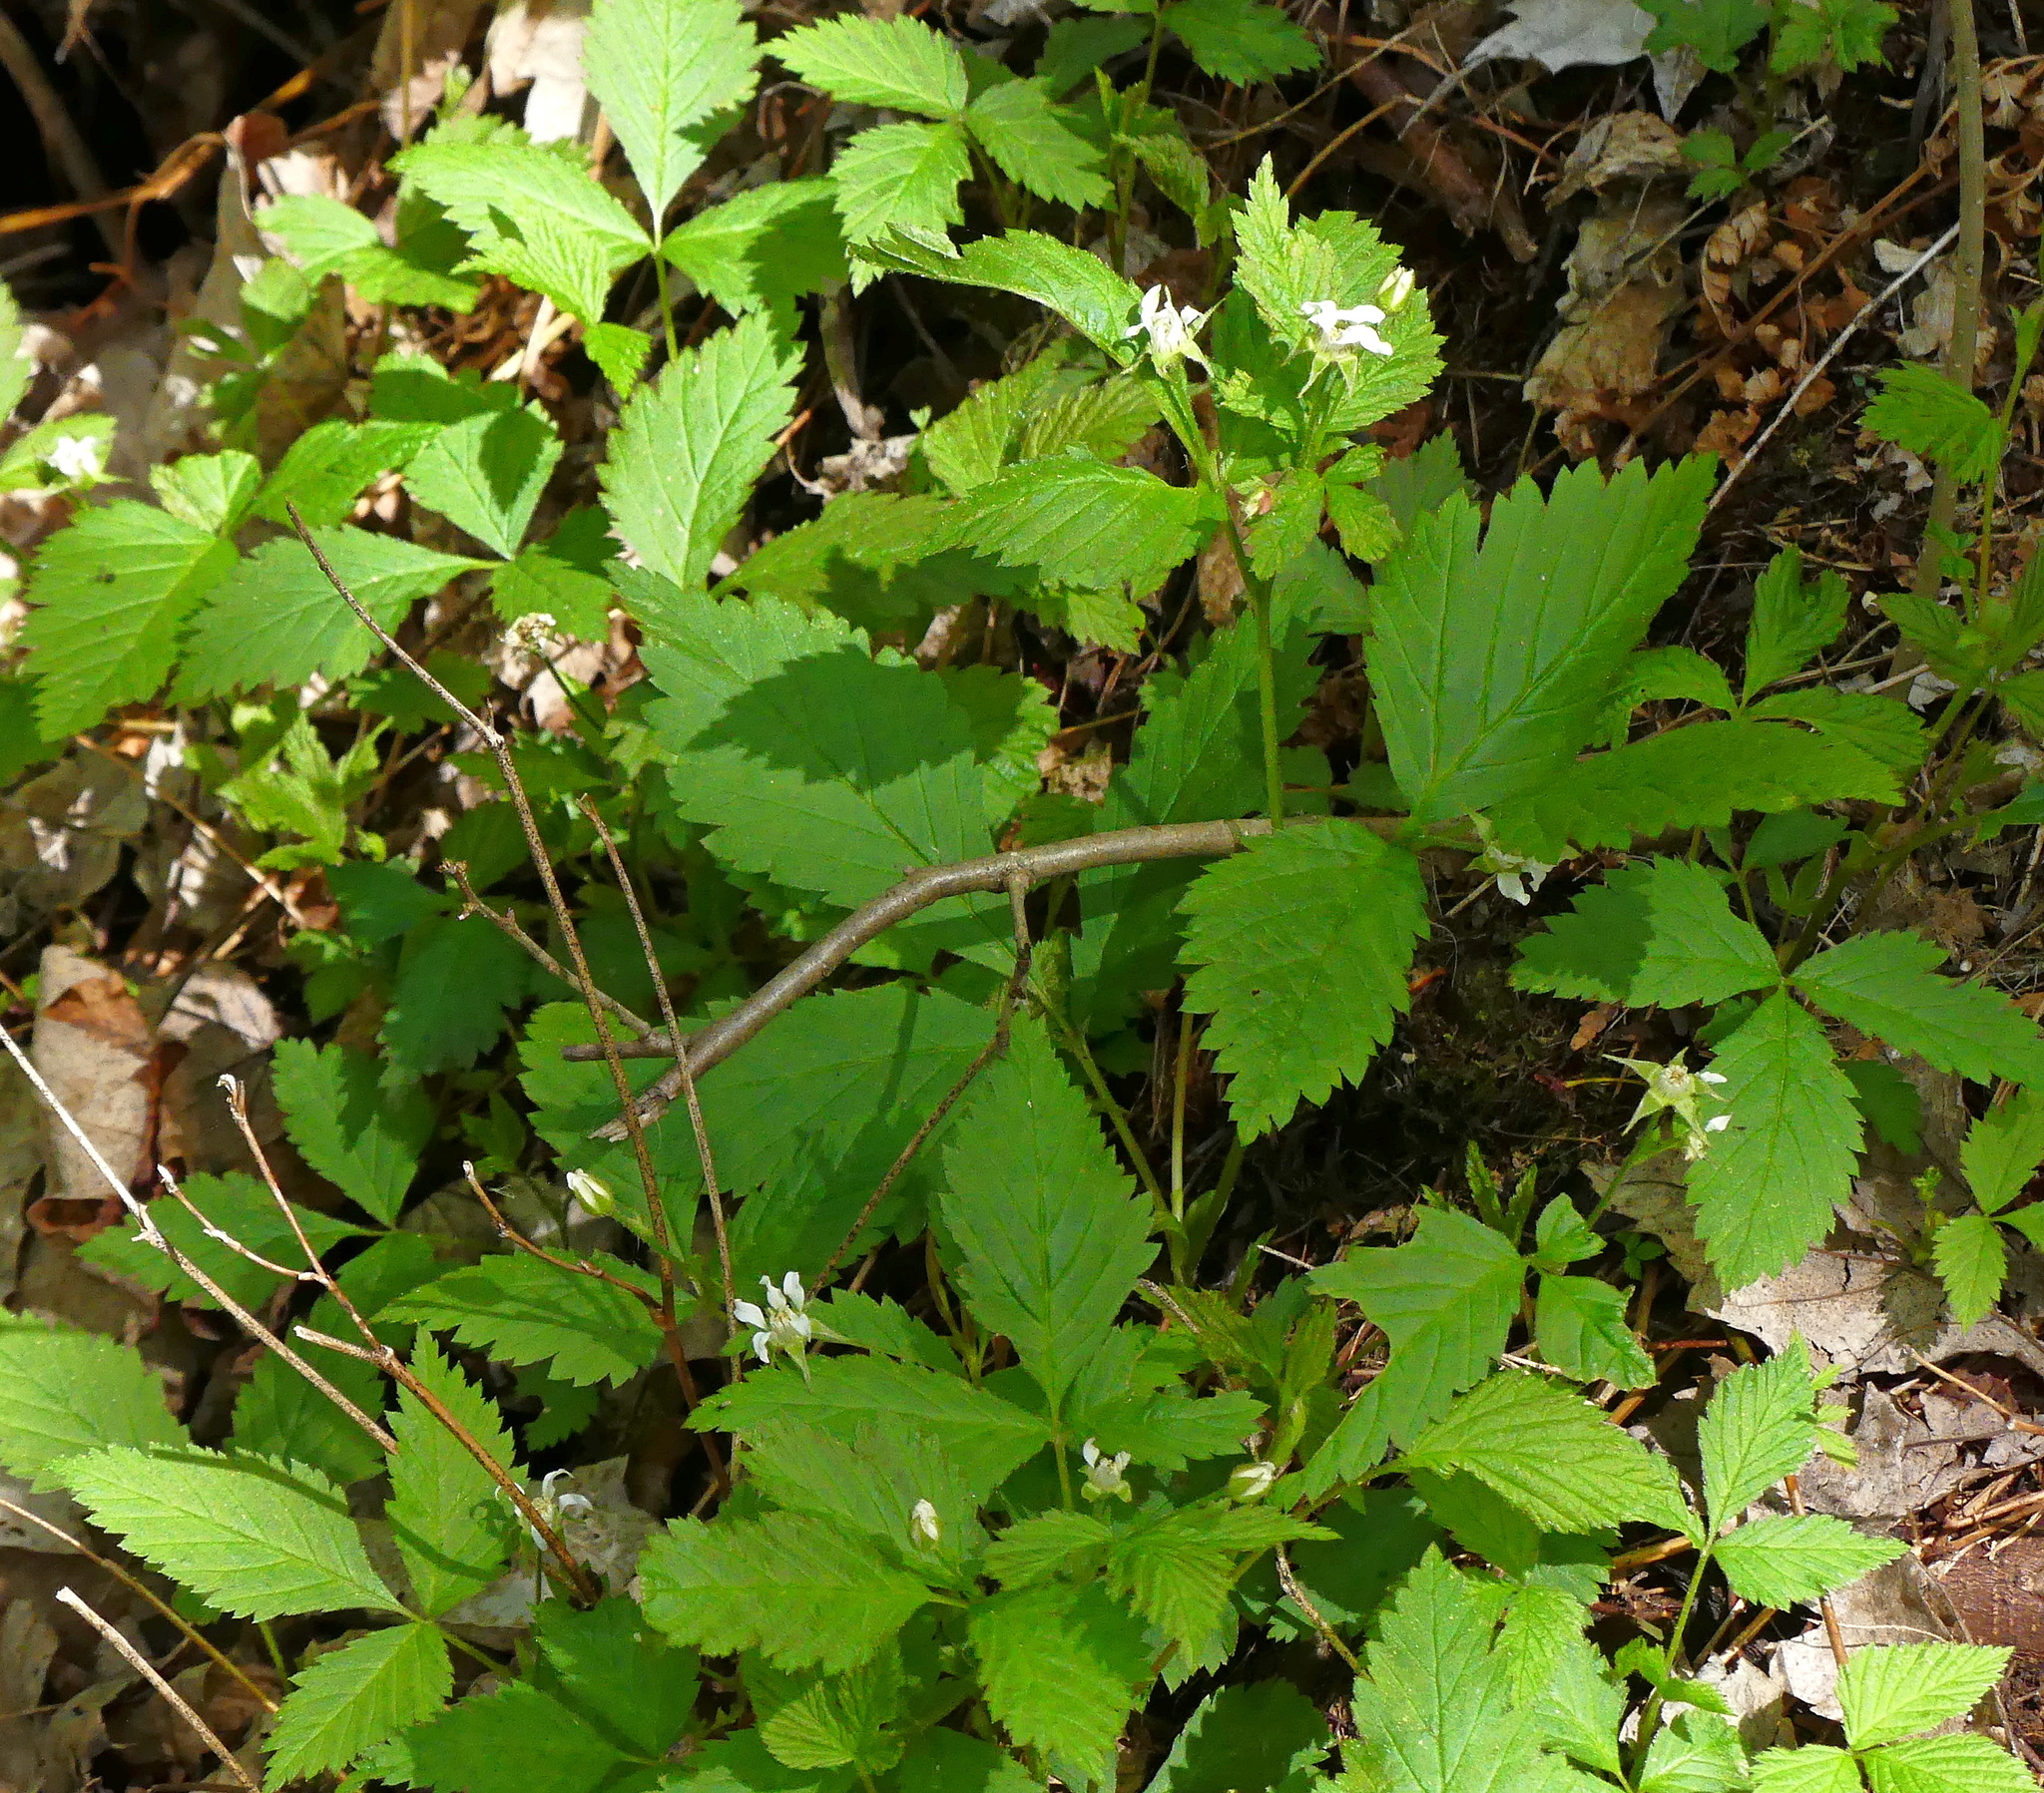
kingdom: Plantae
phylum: Tracheophyta
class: Magnoliopsida
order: Rosales
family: Rosaceae
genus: Rubus
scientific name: Rubus pubescens
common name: Dwarf raspberry
